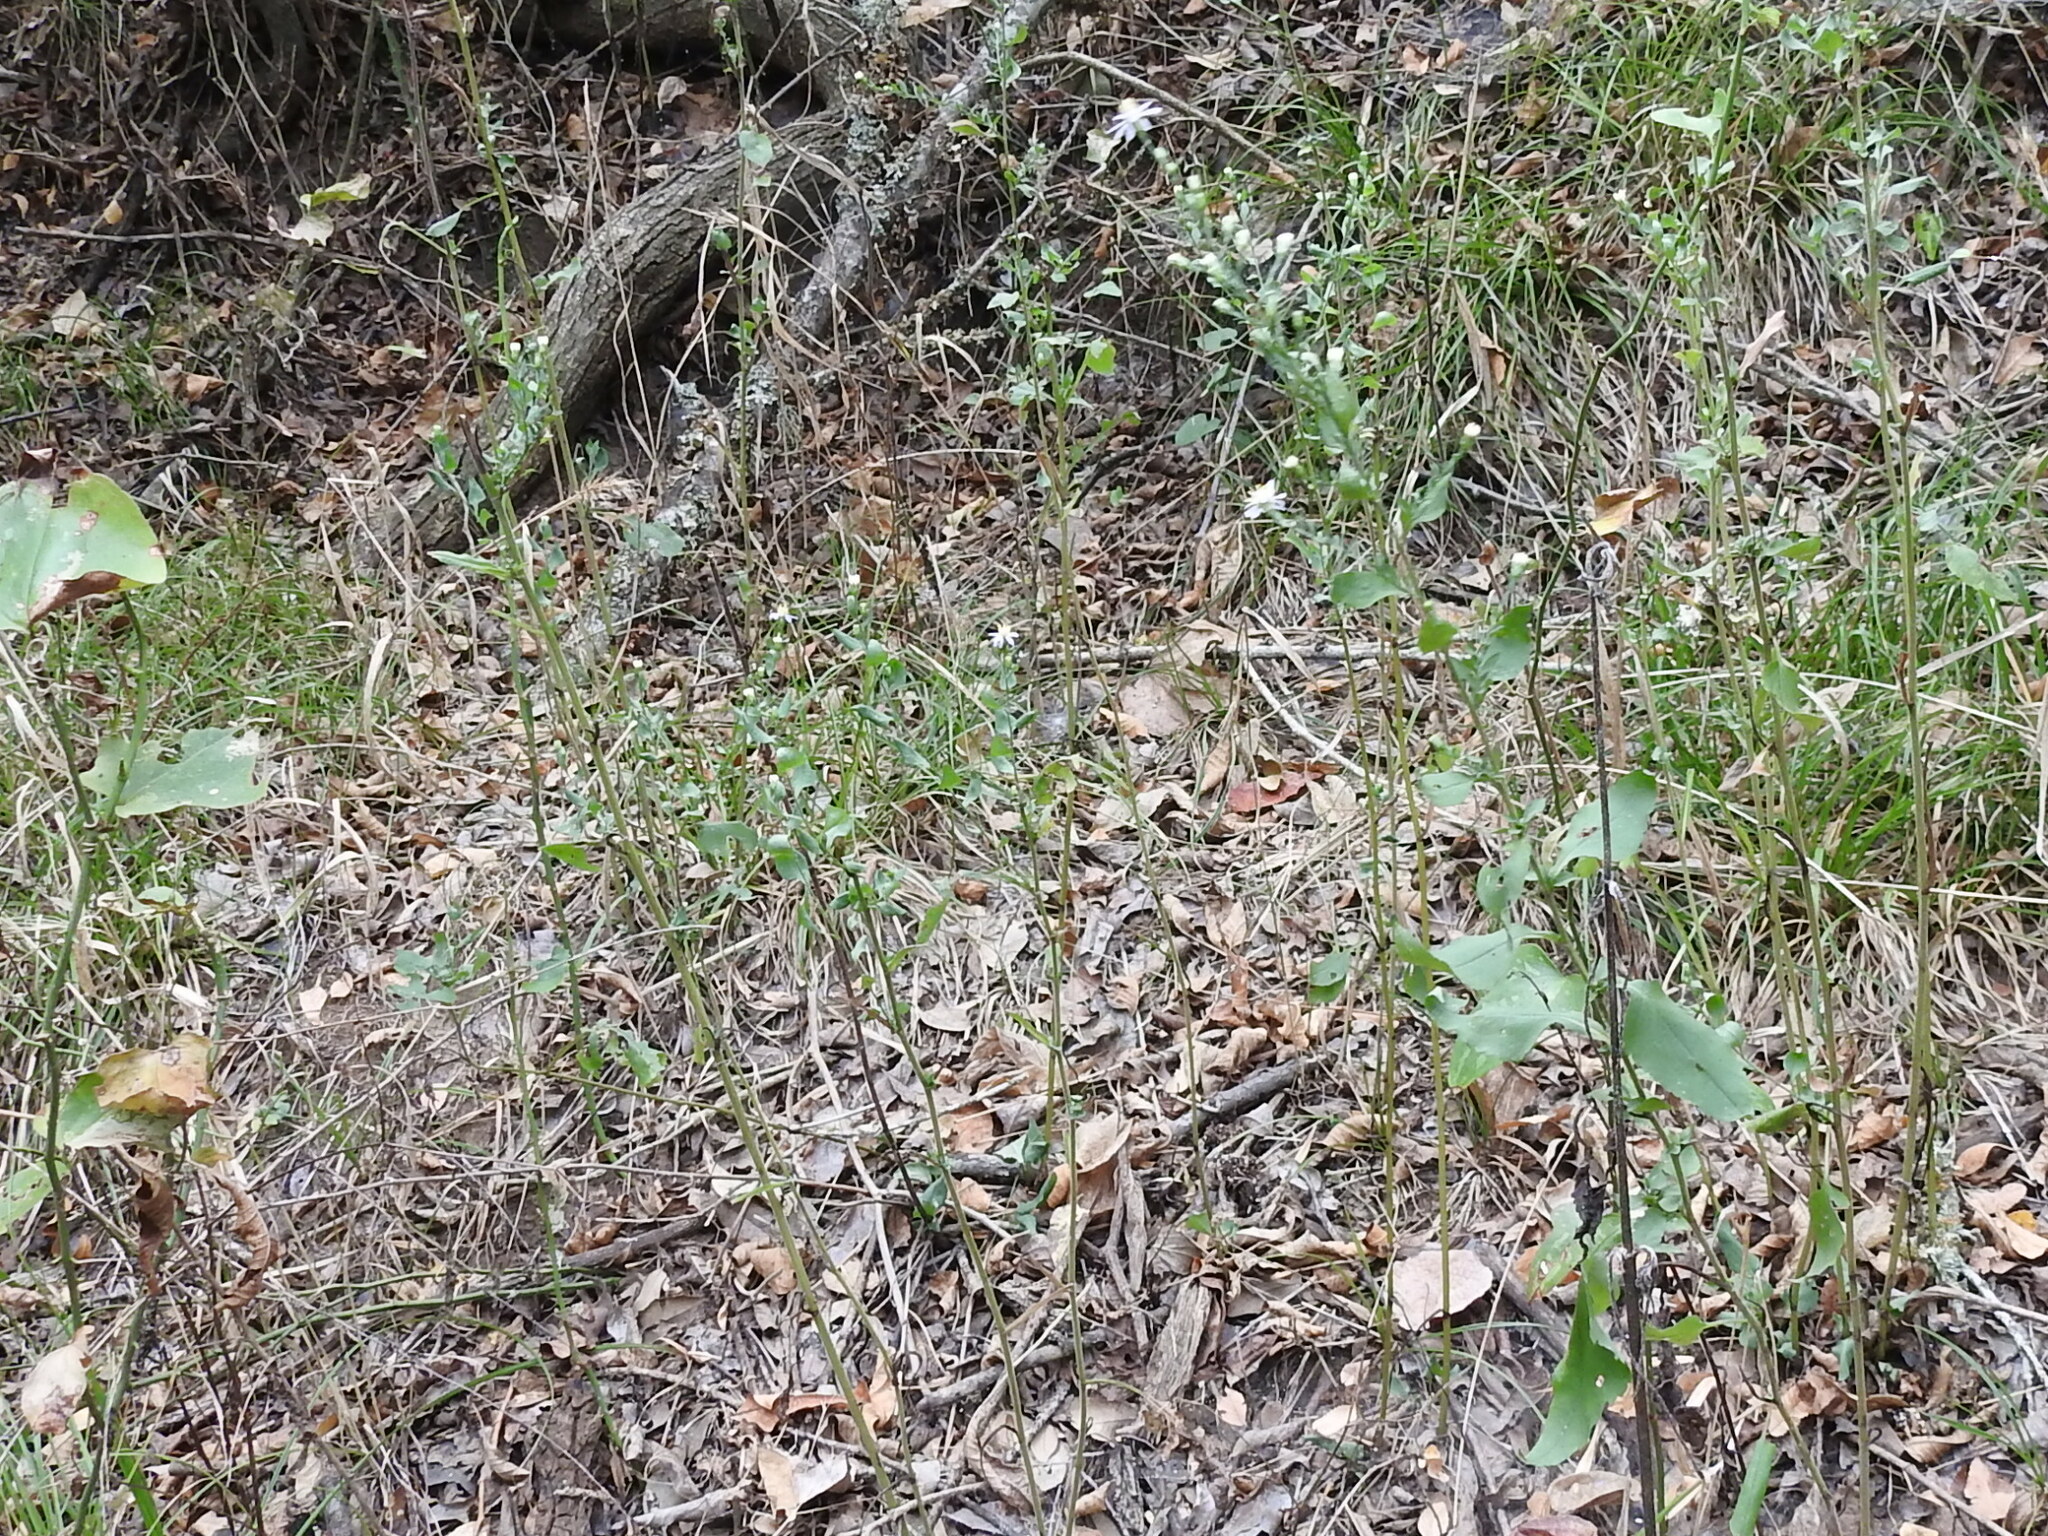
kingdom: Plantae
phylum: Tracheophyta
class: Magnoliopsida
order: Asterales
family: Asteraceae
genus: Symphyotrichum
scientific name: Symphyotrichum drummondii
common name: Drummond's aster
